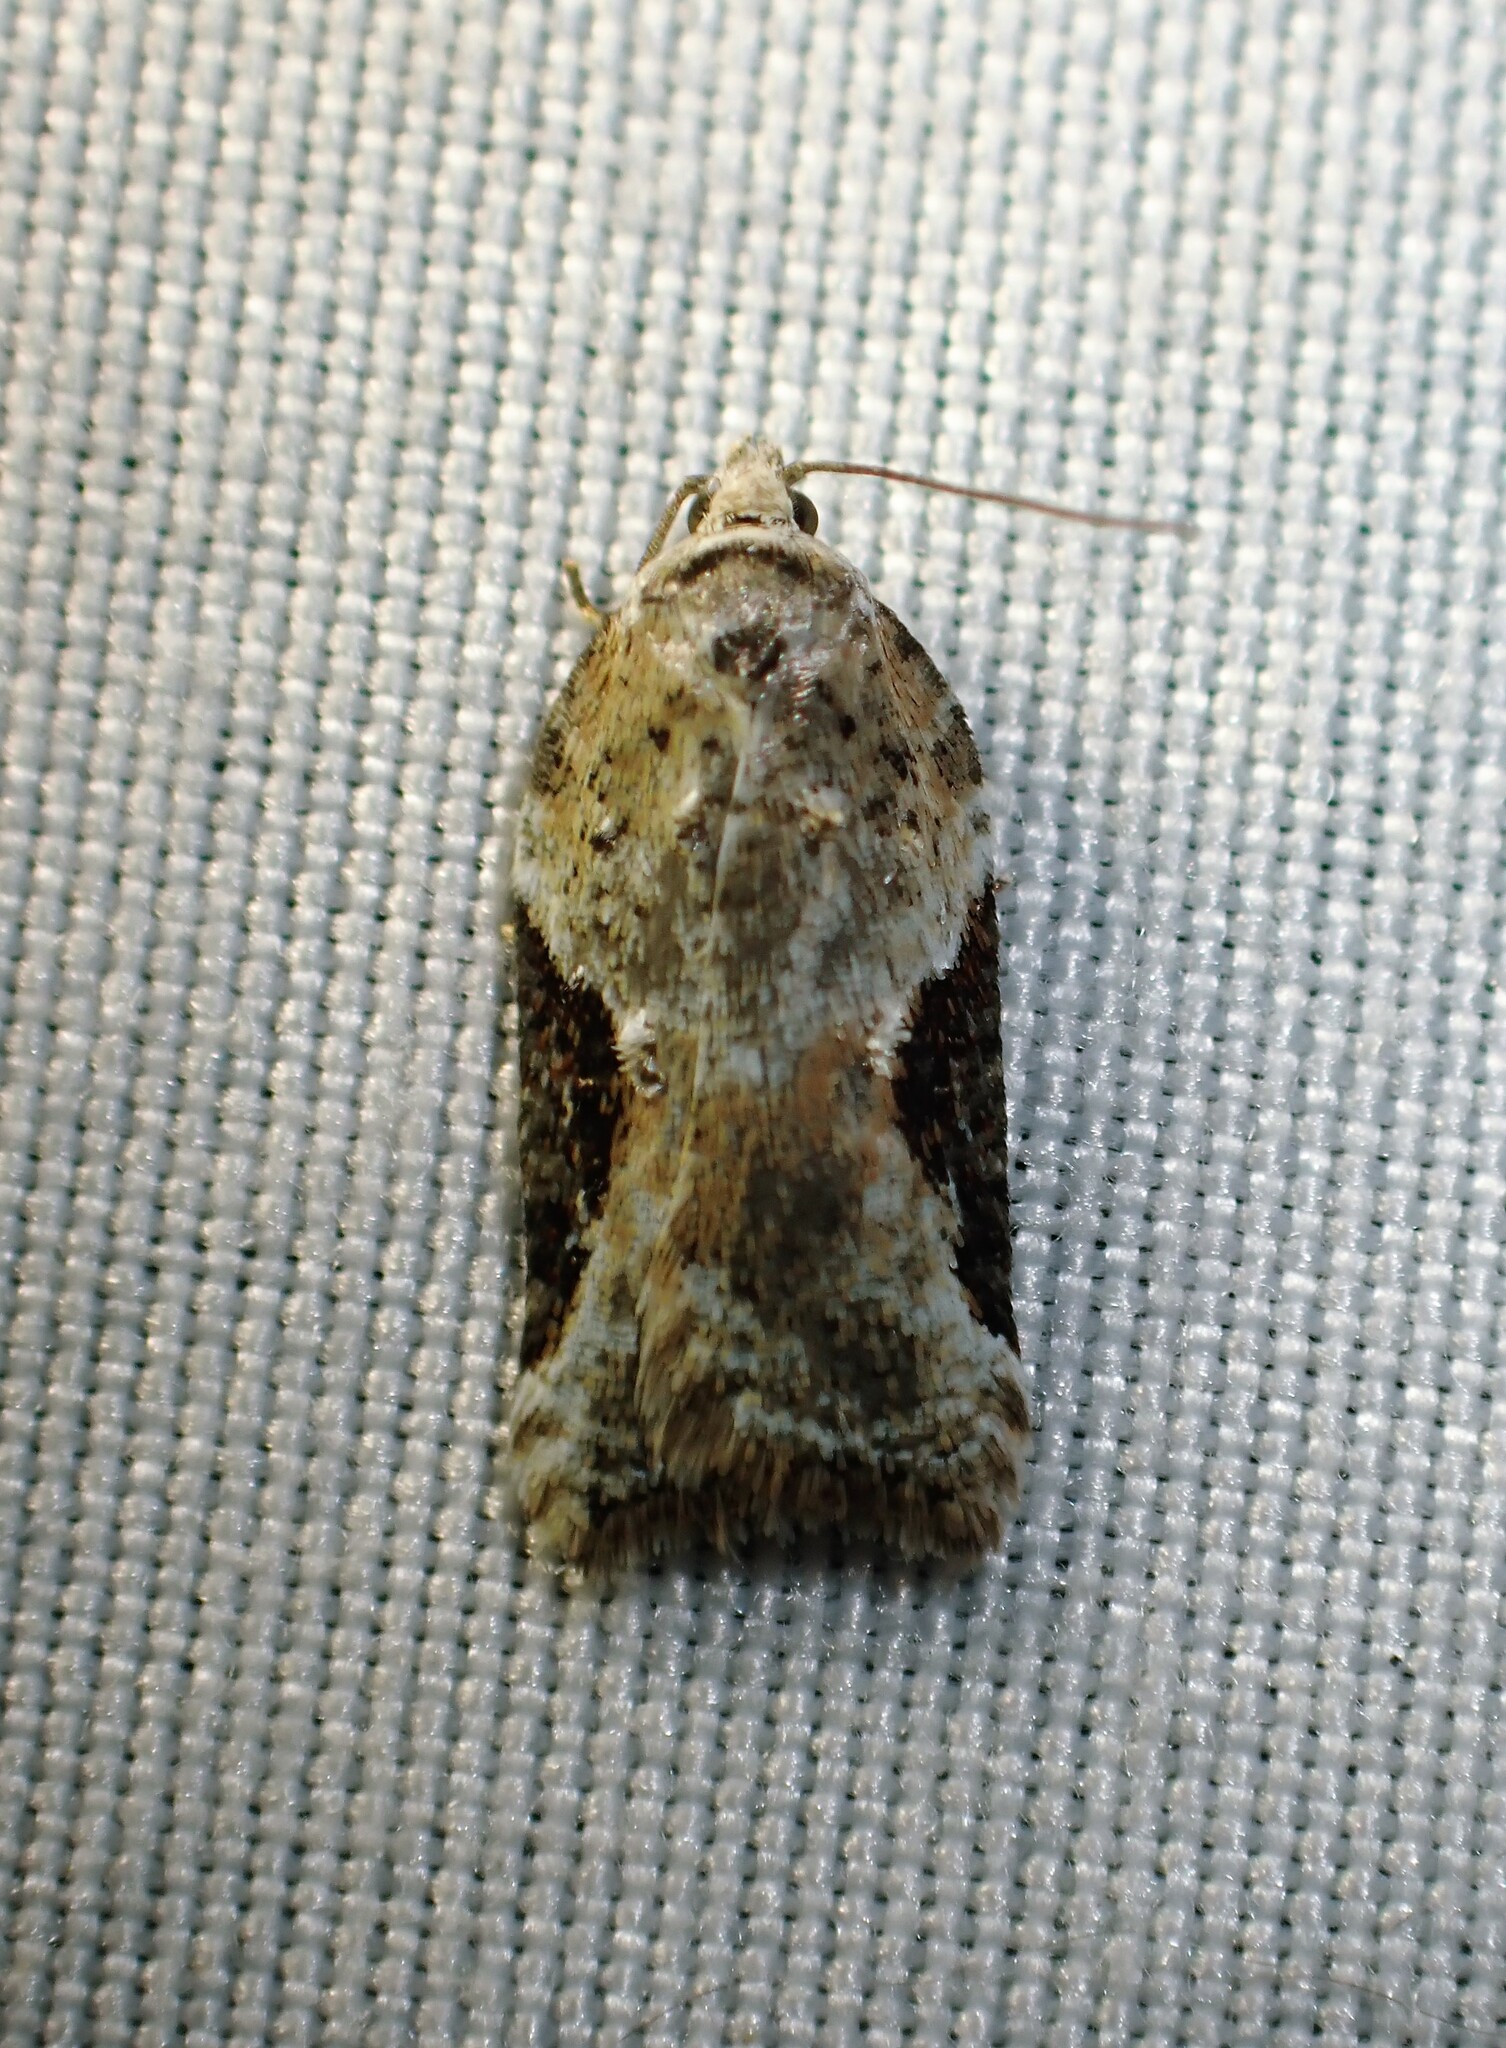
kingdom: Animalia
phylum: Arthropoda
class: Insecta
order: Lepidoptera
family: Tortricidae
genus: Acleris
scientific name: Acleris forbesana
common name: Forbes' acleris moth
